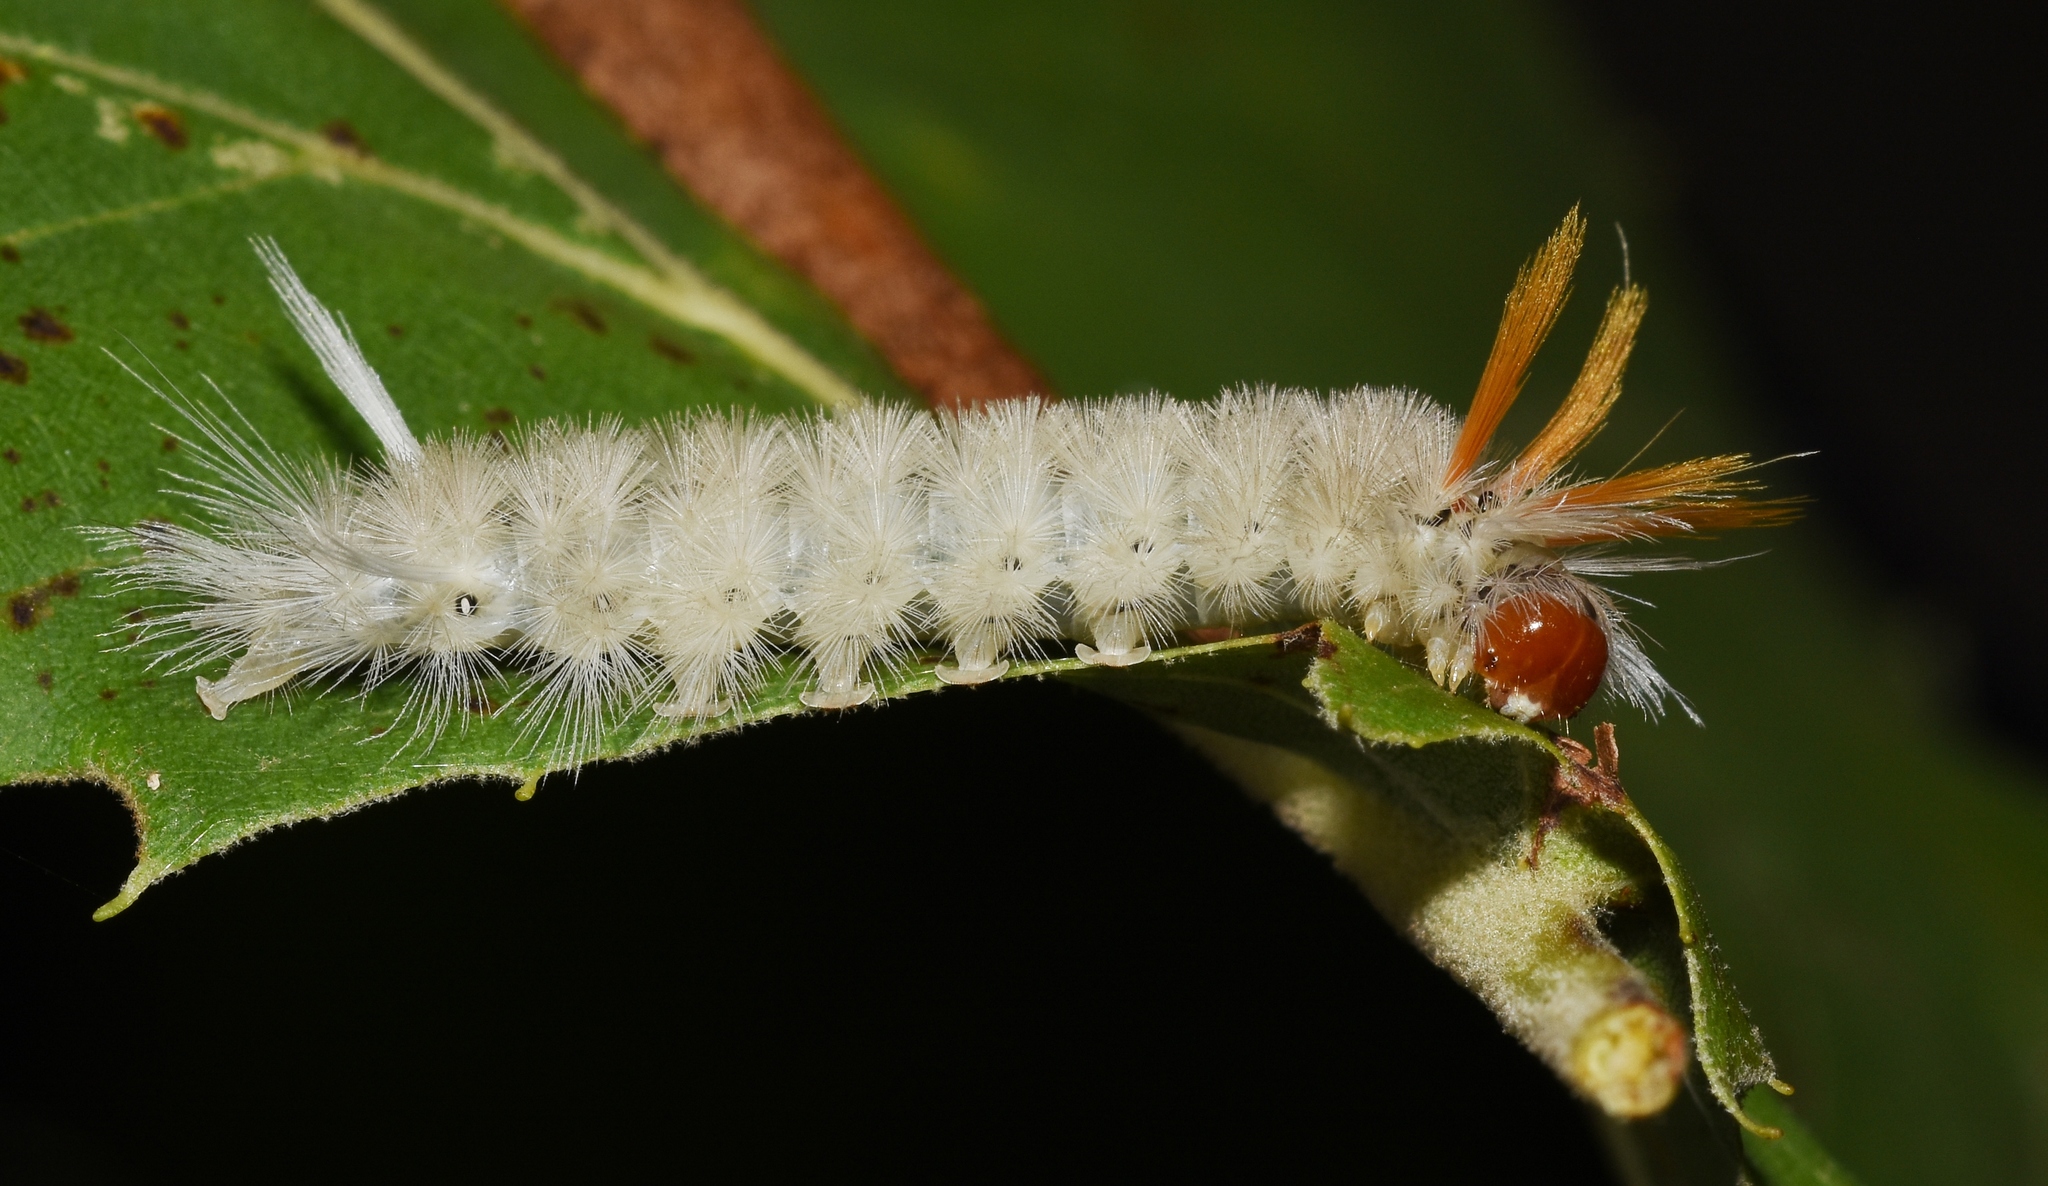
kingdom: Animalia
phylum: Arthropoda
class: Insecta
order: Lepidoptera
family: Erebidae
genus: Halysidota
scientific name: Halysidota harrisii
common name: Sycamore tussock moth
